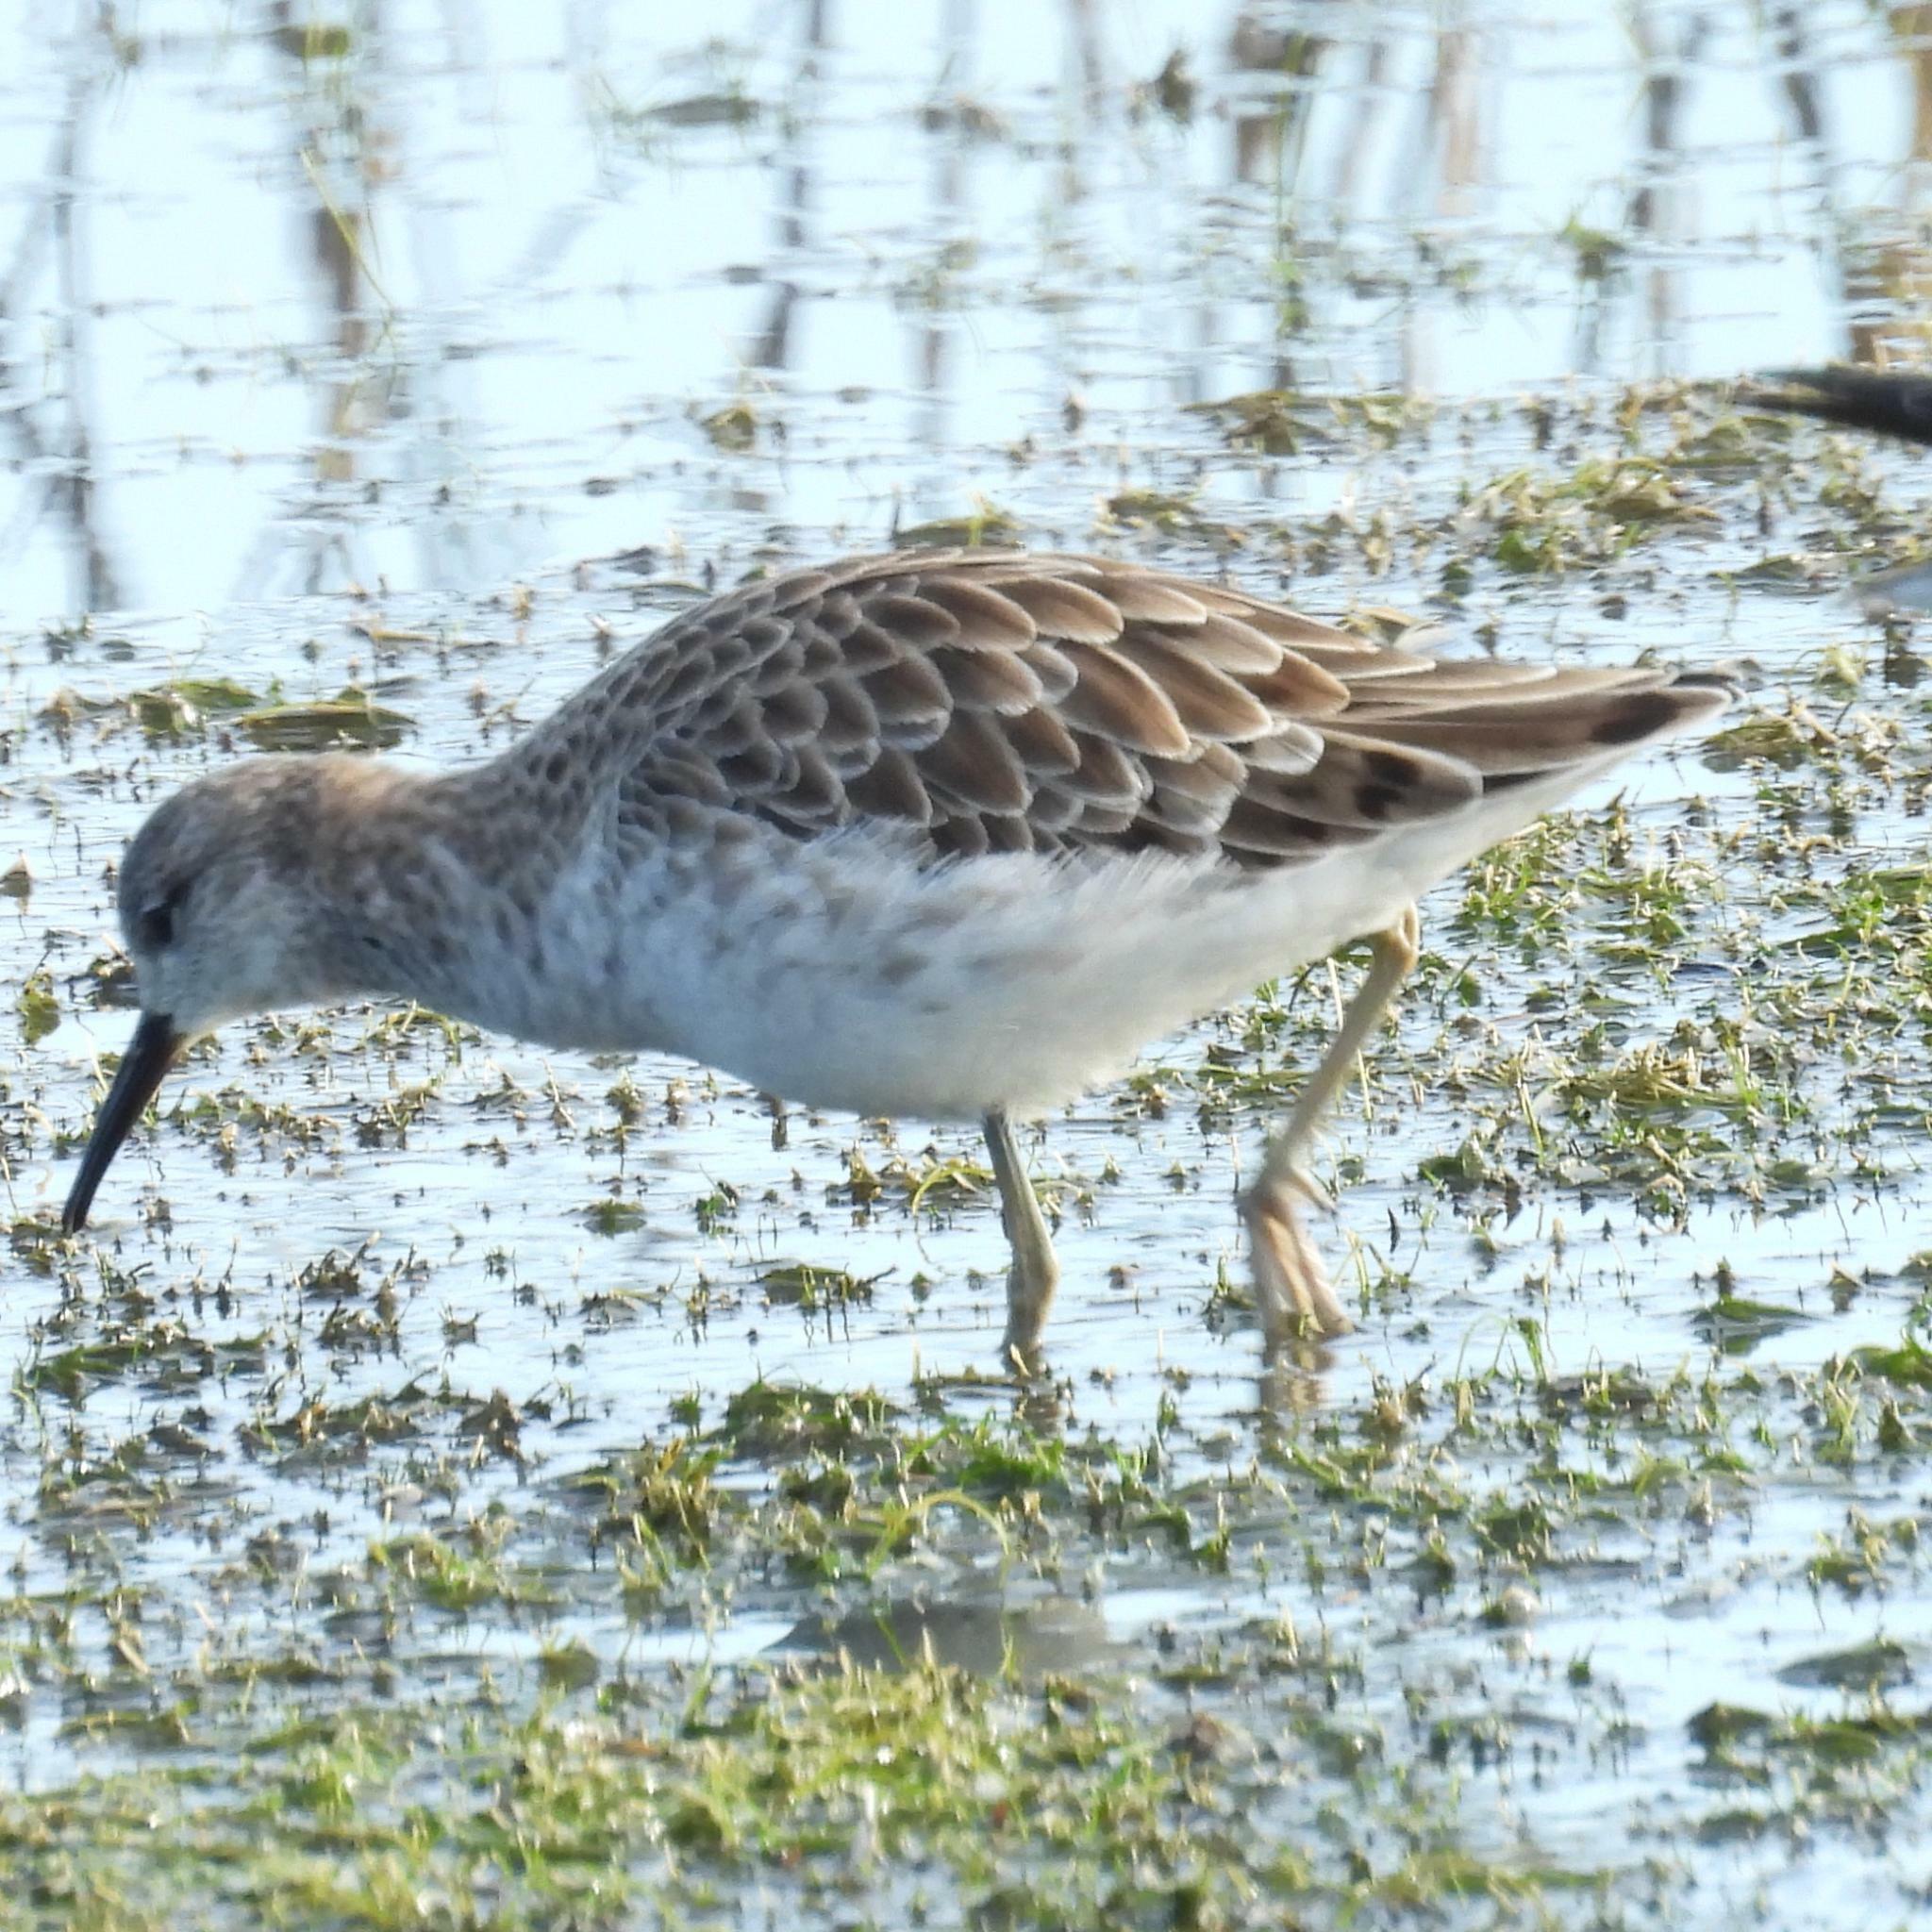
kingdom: Animalia
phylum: Chordata
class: Aves
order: Charadriiformes
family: Scolopacidae
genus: Calidris
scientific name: Calidris pugnax
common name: Ruff
